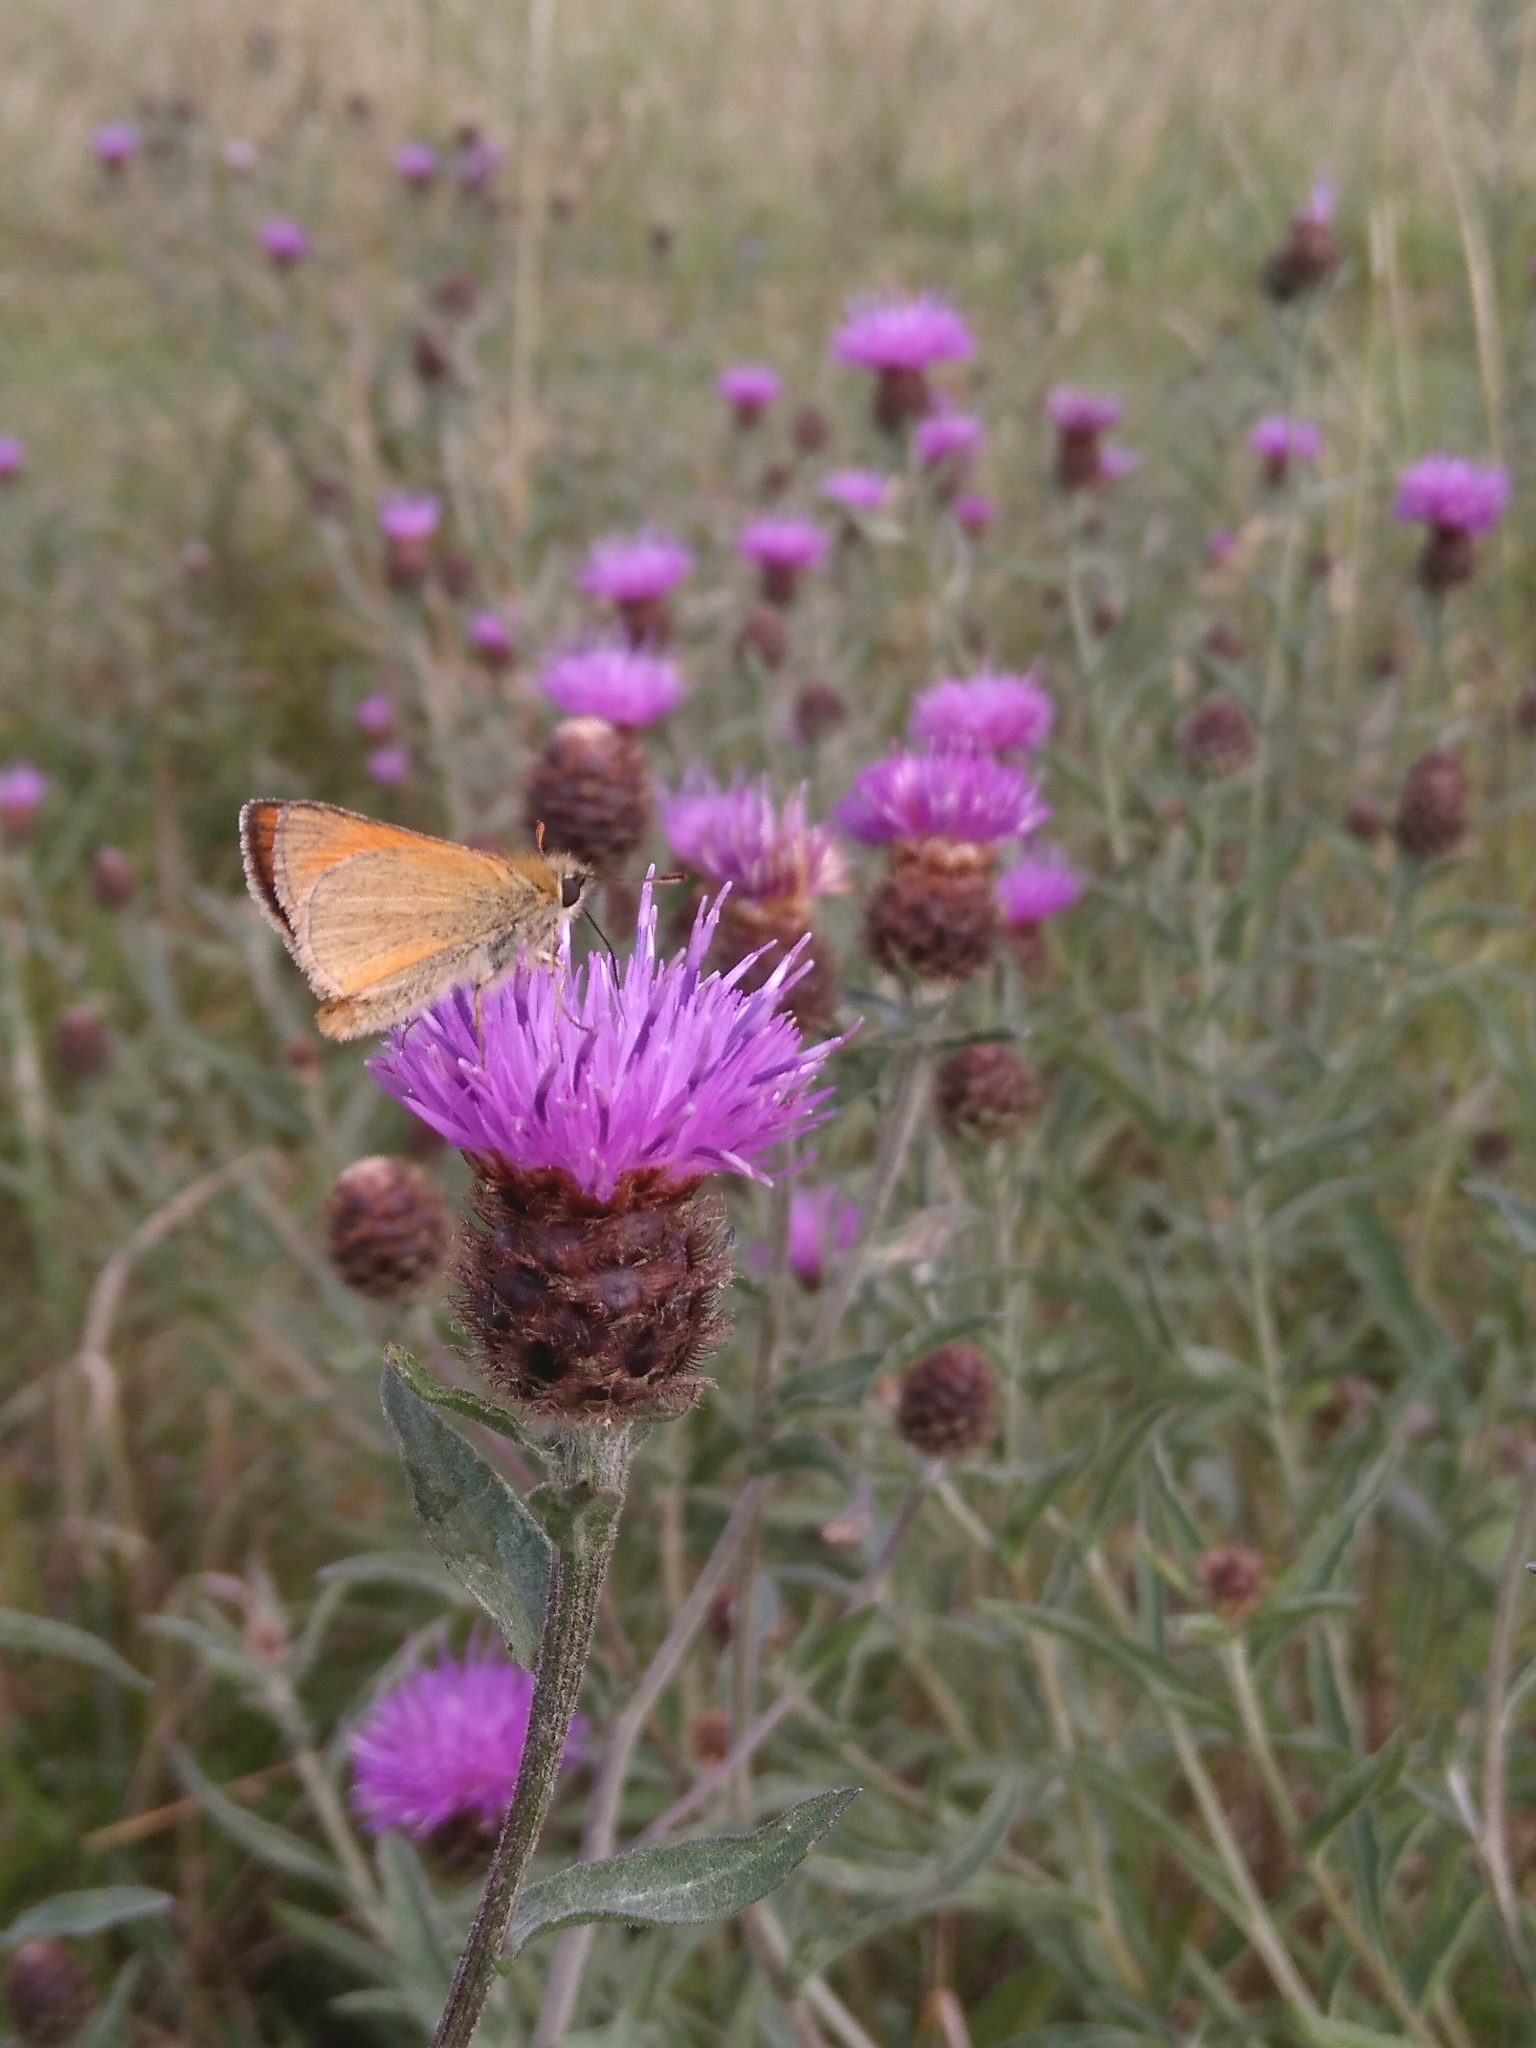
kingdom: Animalia
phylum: Arthropoda
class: Insecta
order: Lepidoptera
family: Hesperiidae
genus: Thymelicus
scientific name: Thymelicus sylvestris
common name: Small skipper
